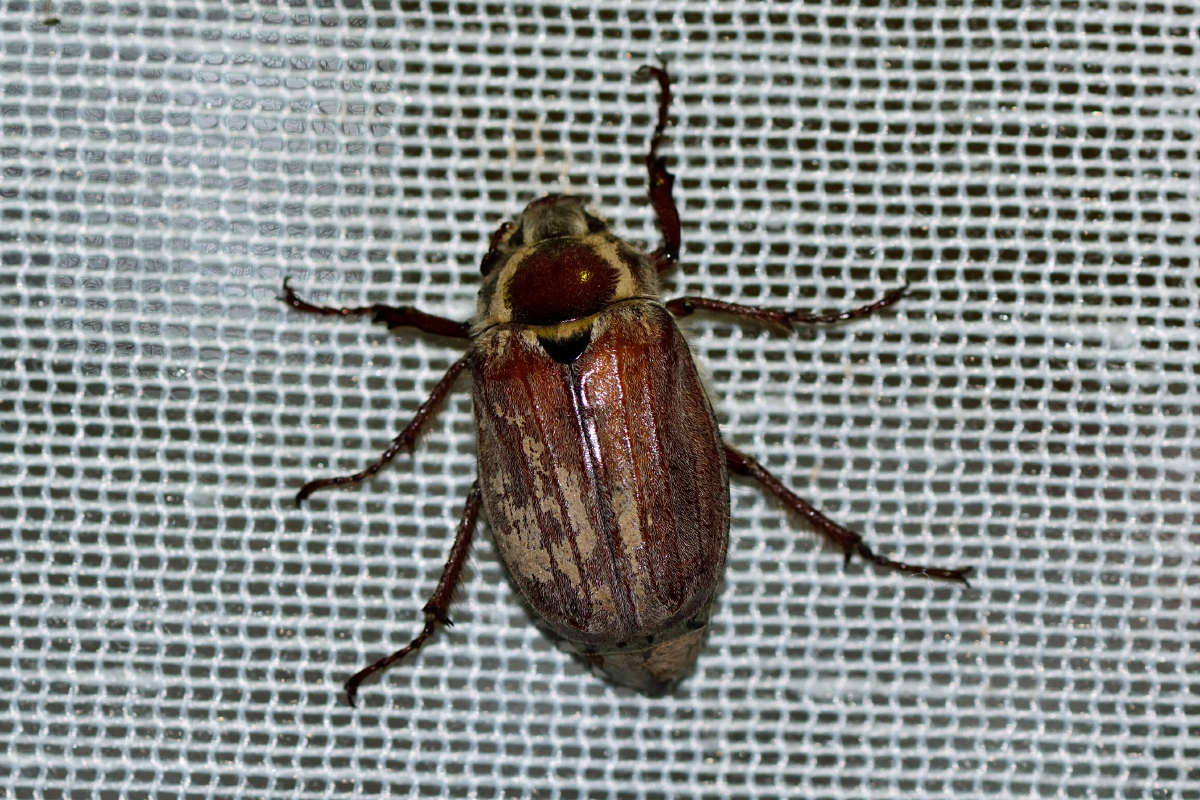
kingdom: Animalia
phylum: Arthropoda
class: Insecta
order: Coleoptera
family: Scarabaeidae
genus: Melolontha
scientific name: Melolontha hippocastani
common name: Chestnut cockchafer
